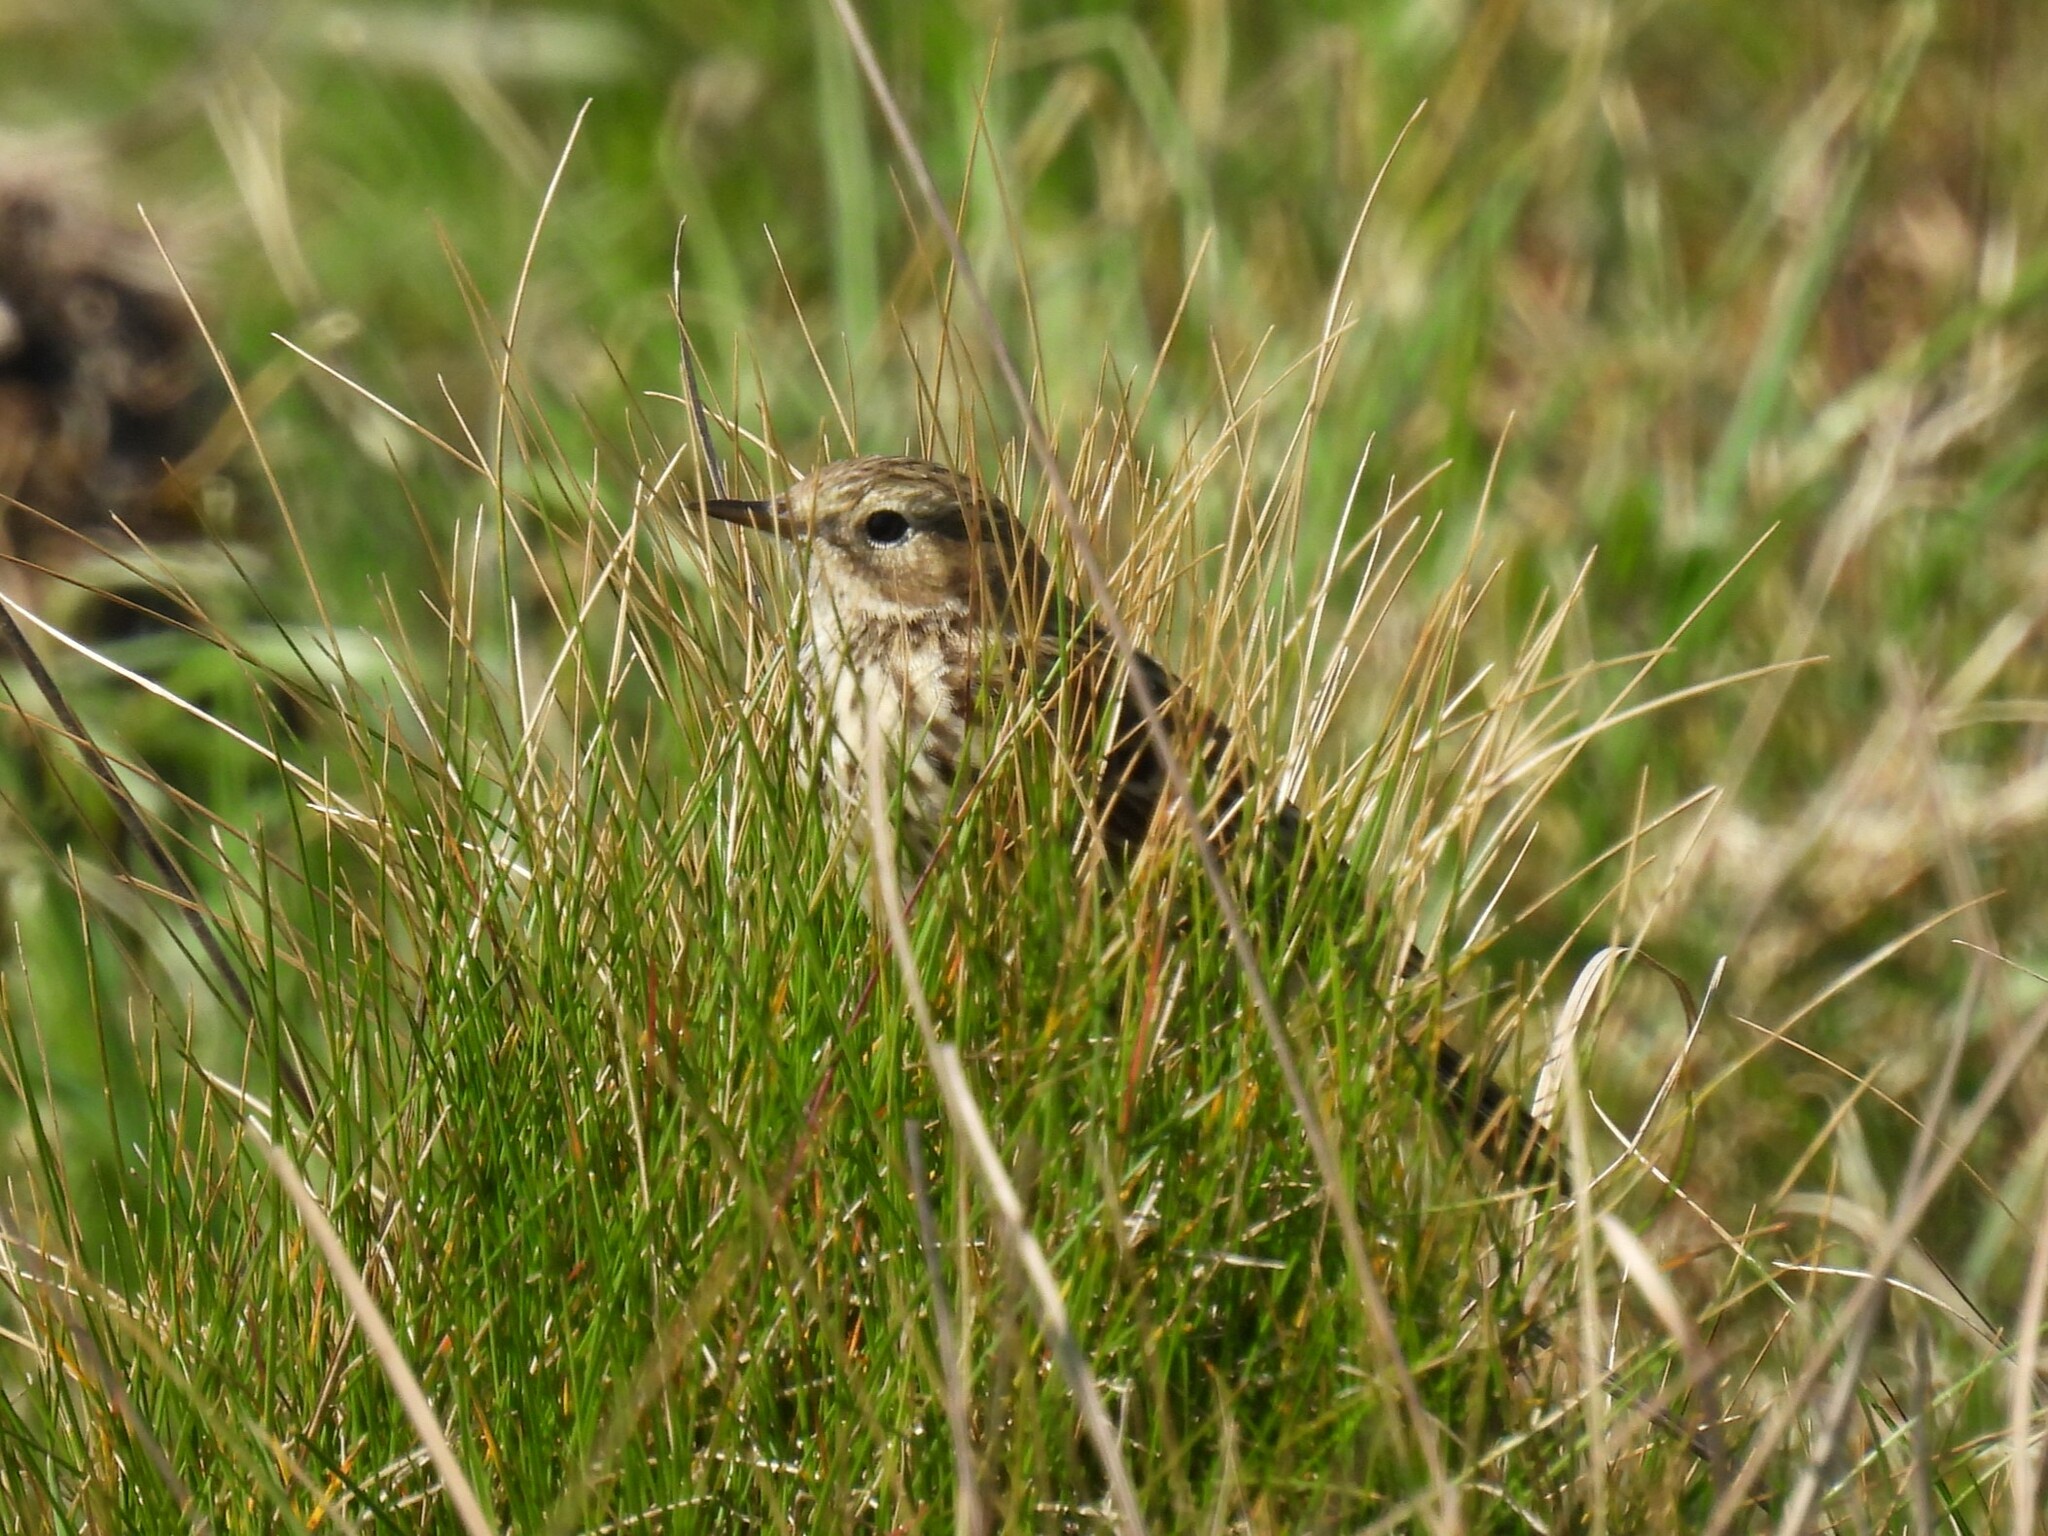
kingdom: Animalia
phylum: Chordata
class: Aves
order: Passeriformes
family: Motacillidae
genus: Anthus
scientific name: Anthus pratensis
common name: Meadow pipit
